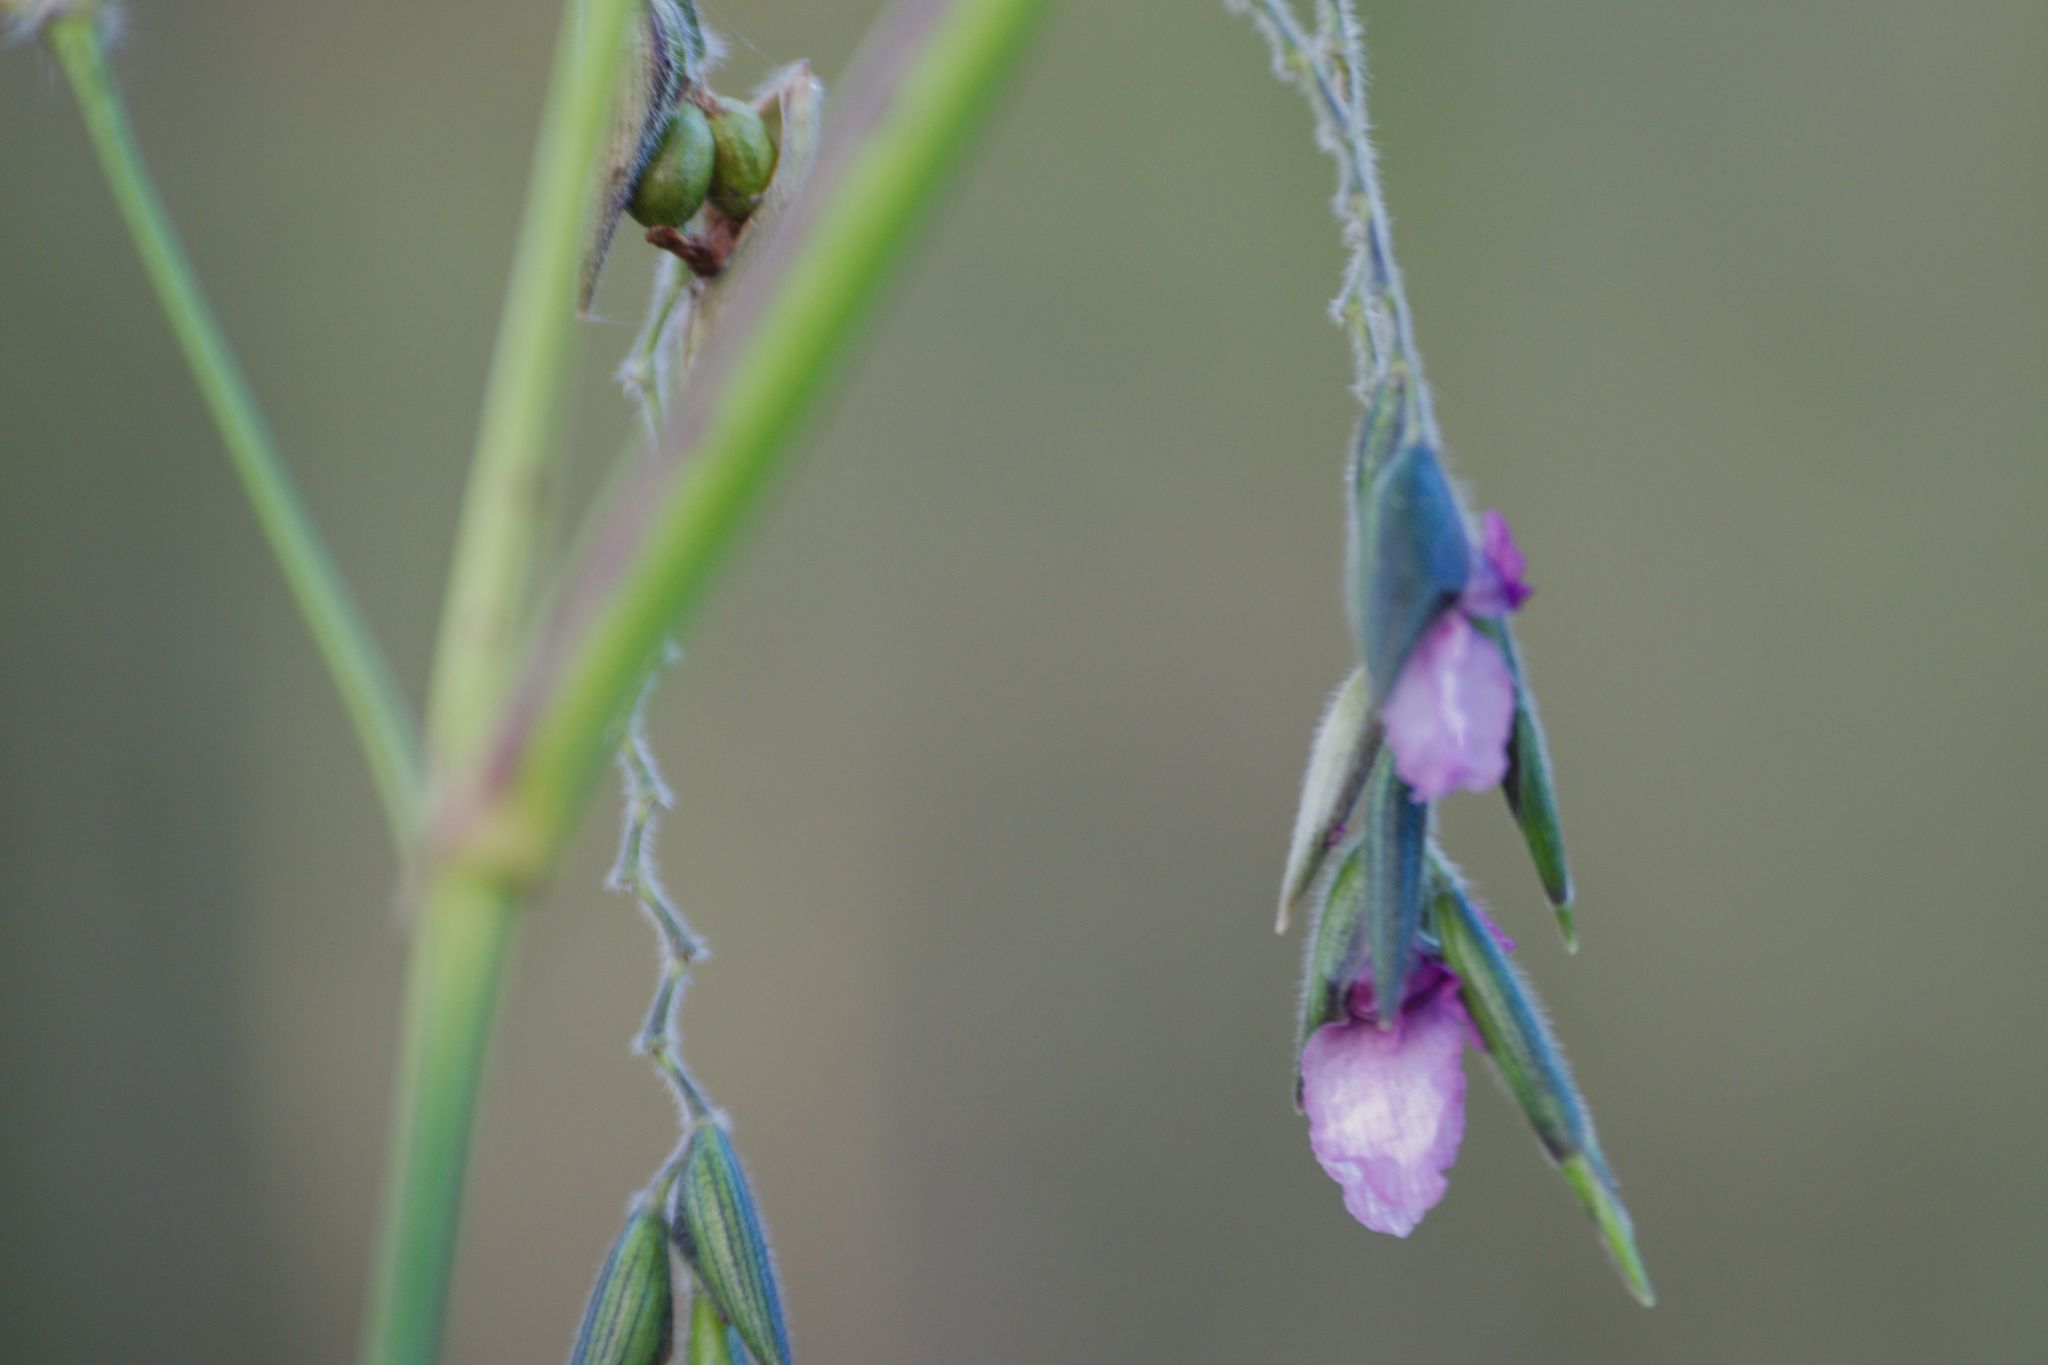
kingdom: Plantae
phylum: Tracheophyta
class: Liliopsida
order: Zingiberales
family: Marantaceae
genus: Thalia
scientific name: Thalia geniculata
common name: Arrowroot
